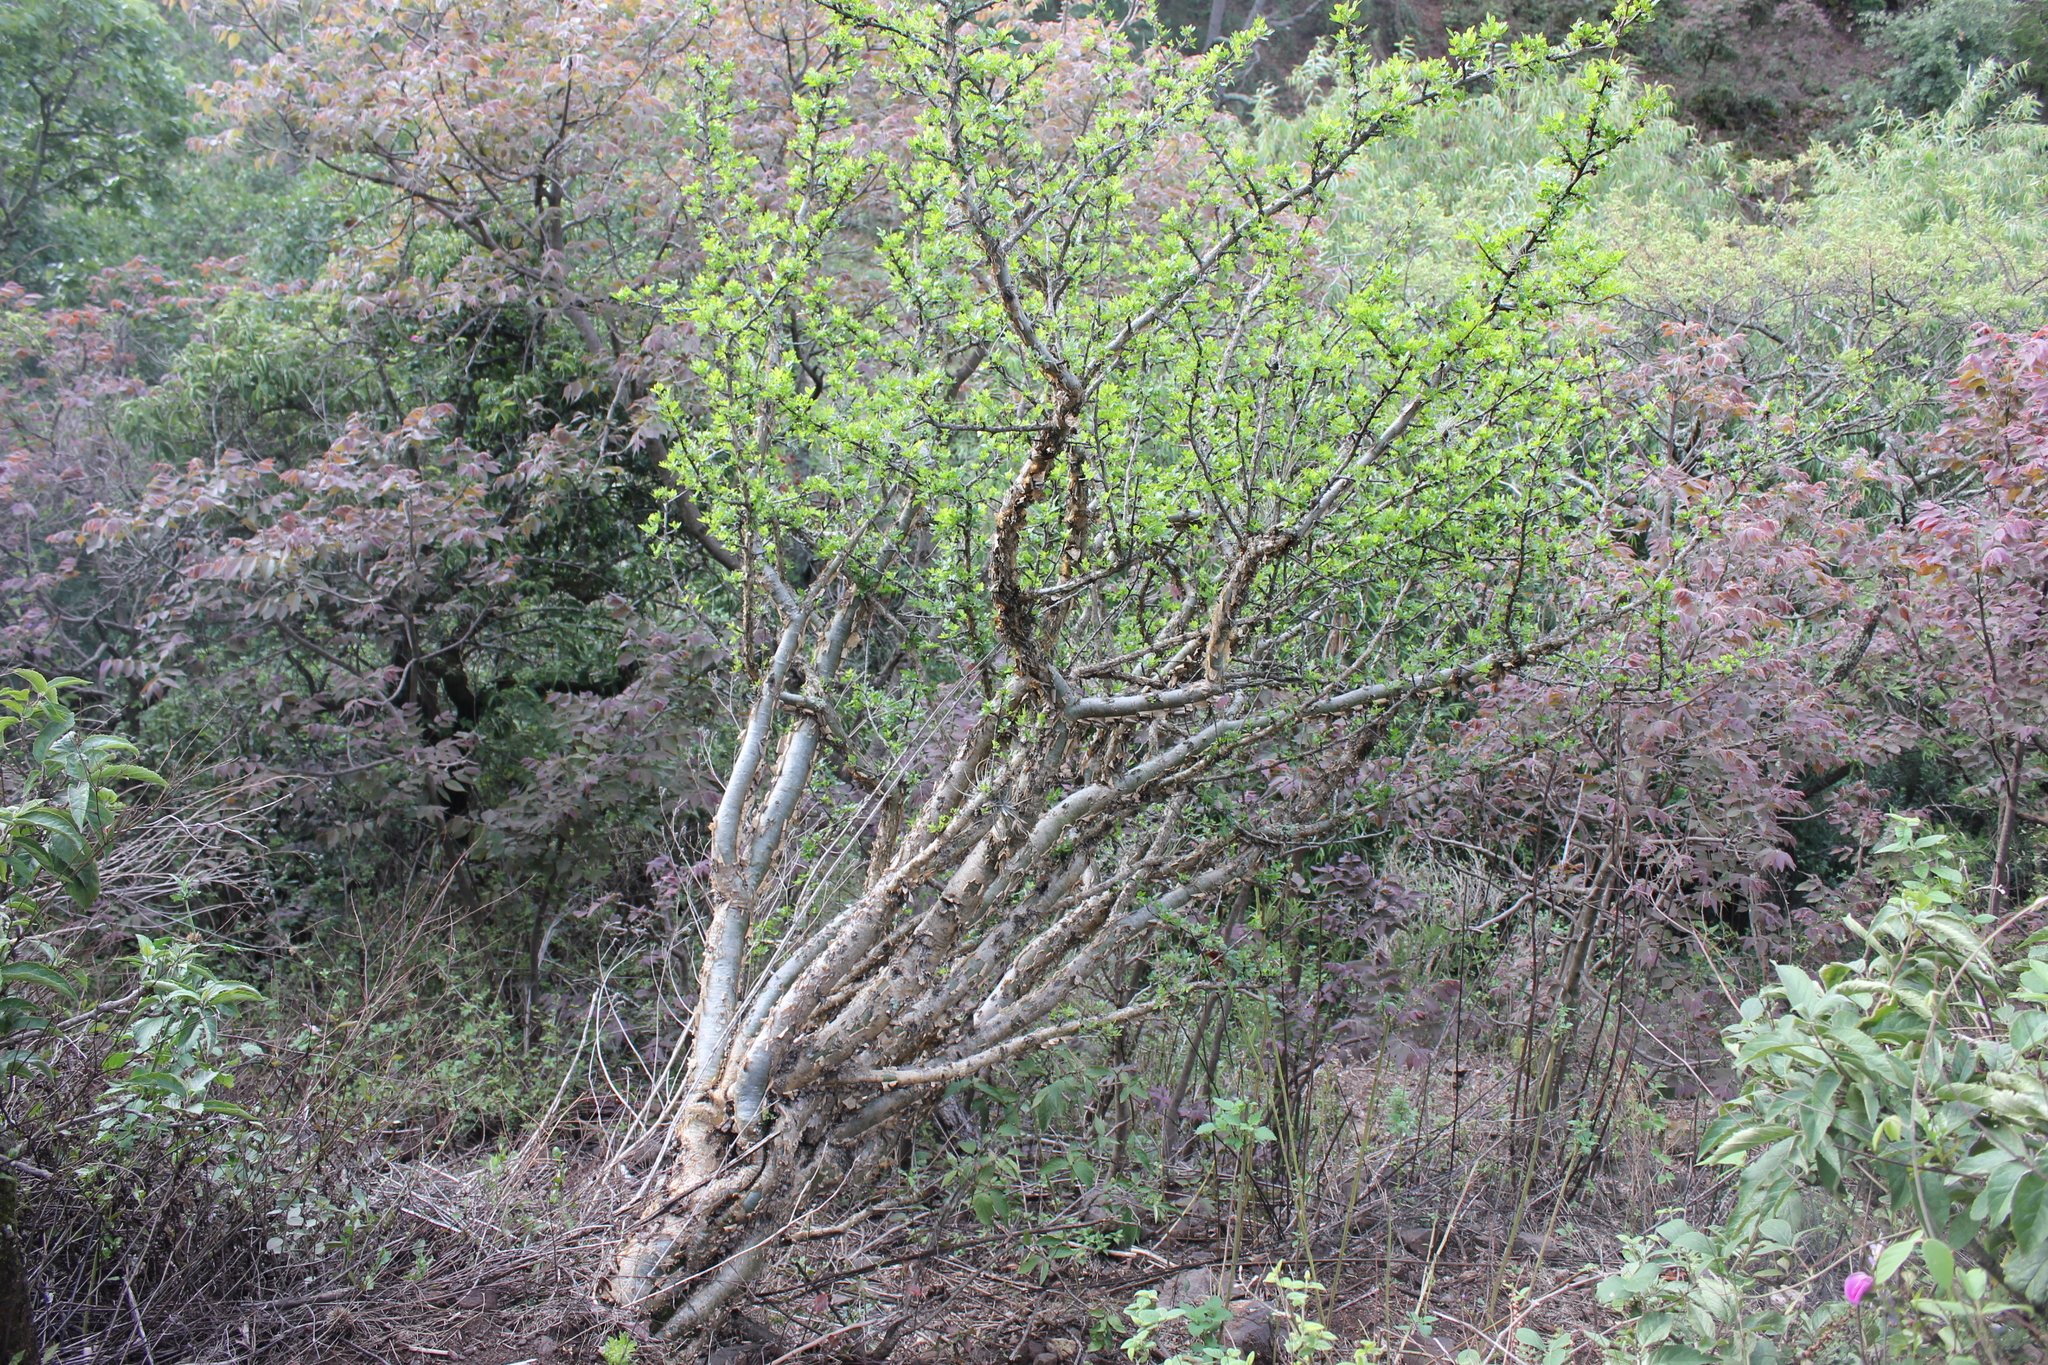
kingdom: Plantae
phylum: Tracheophyta
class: Magnoliopsida
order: Sapindales
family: Burseraceae
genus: Bursera
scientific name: Bursera fagaroides
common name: Elephant tree
